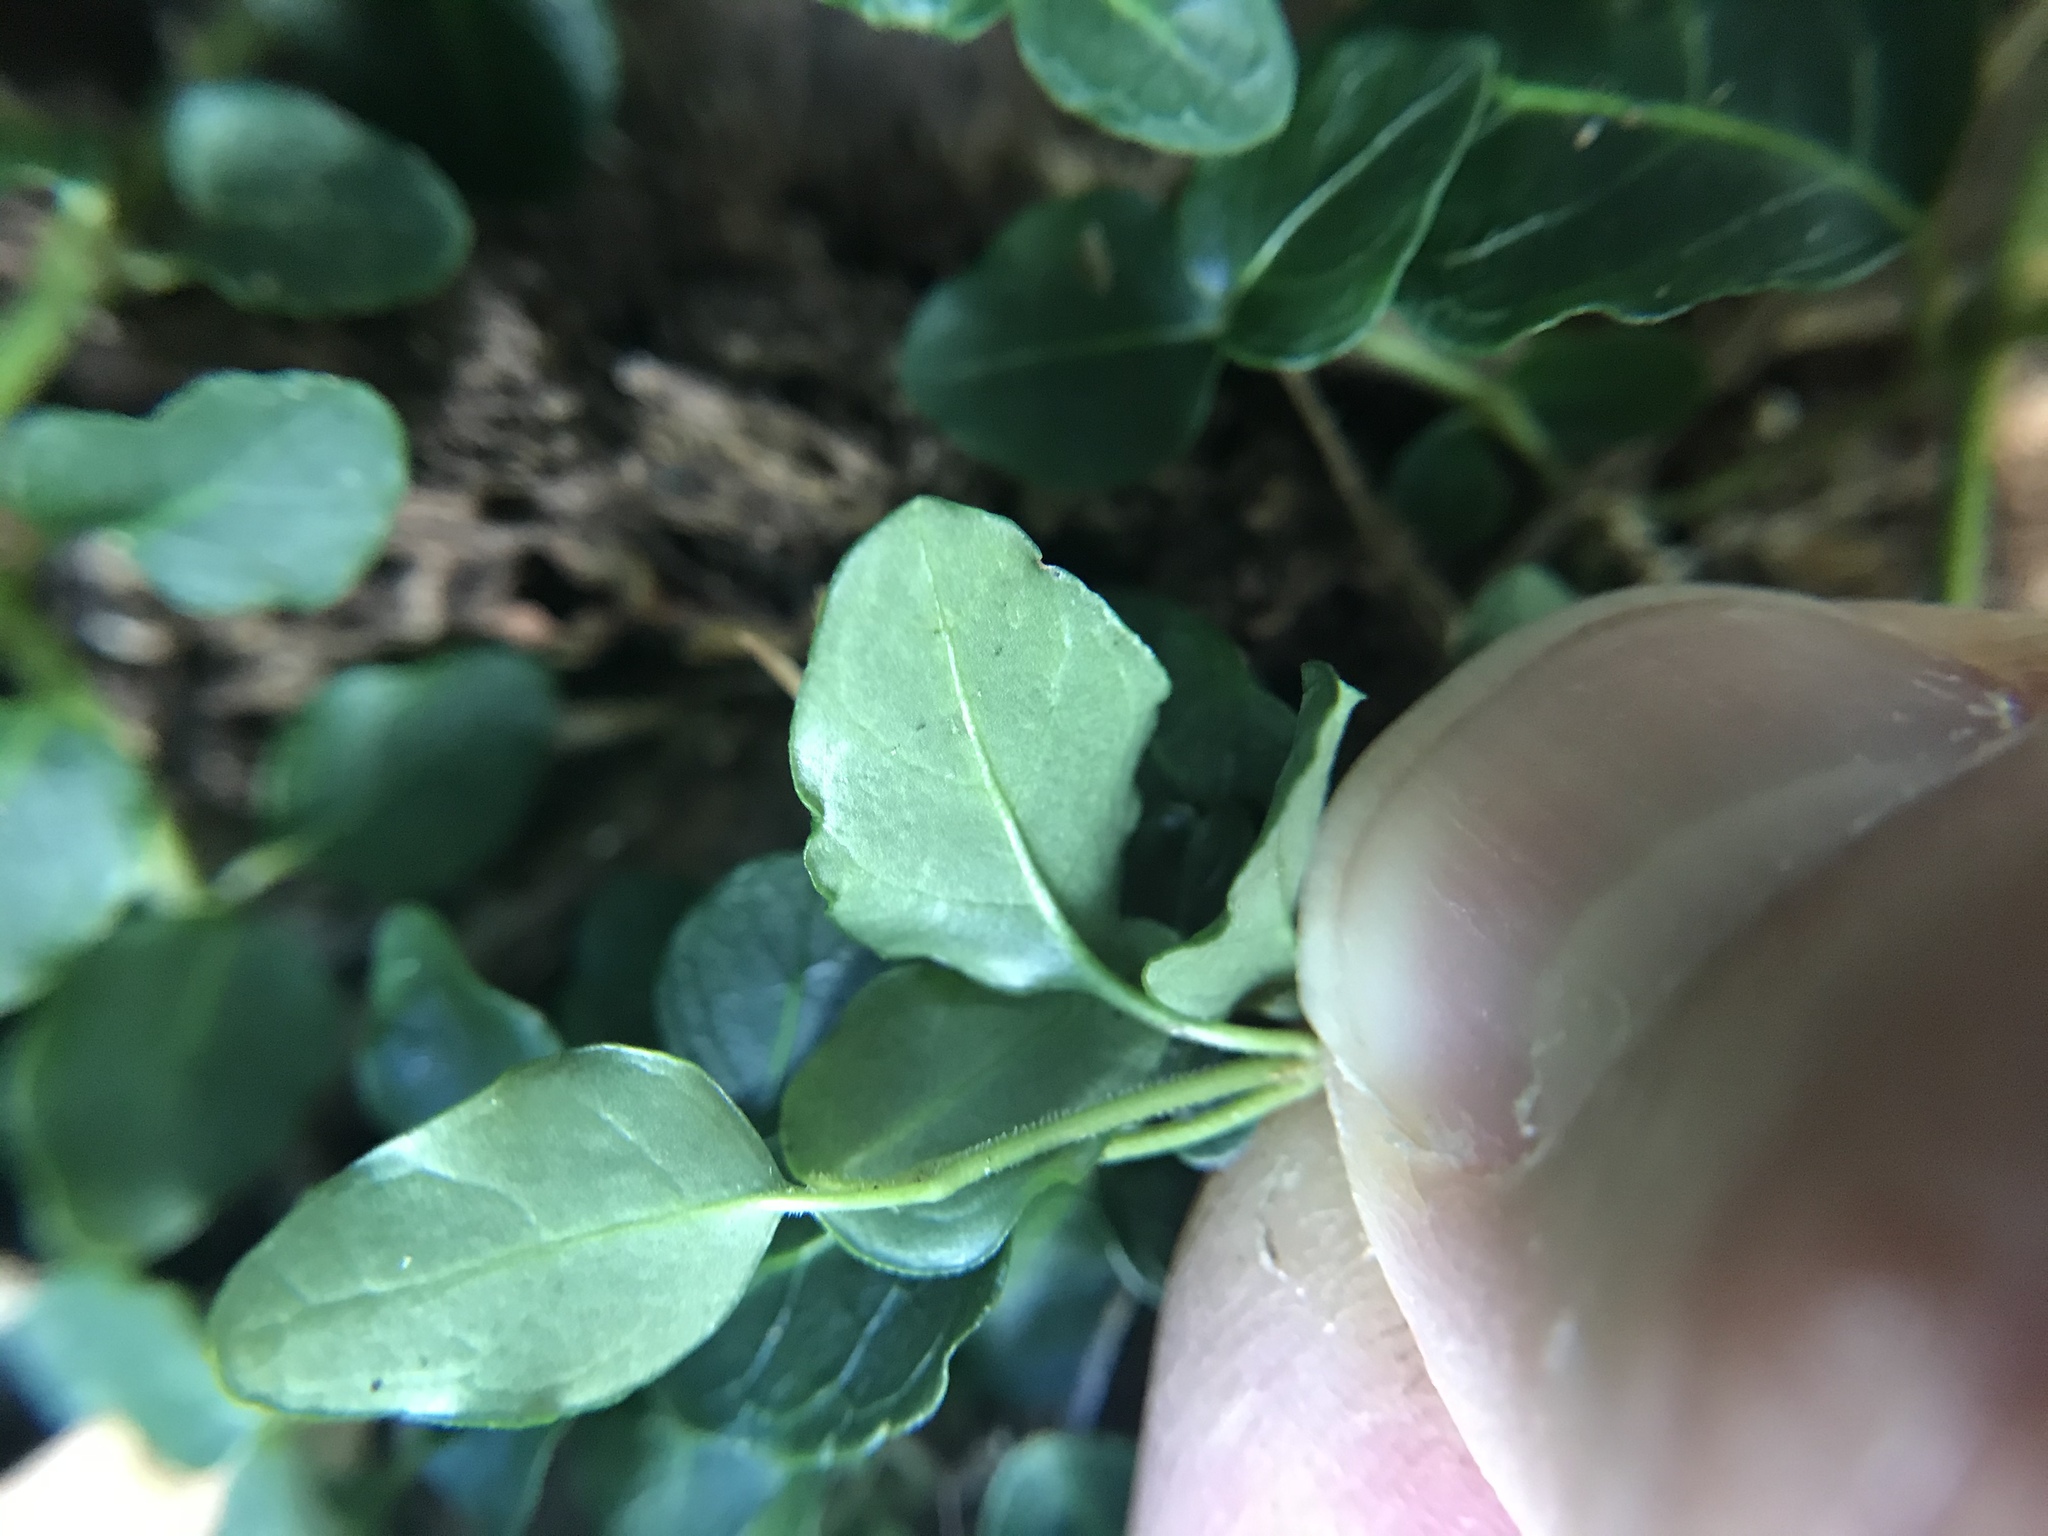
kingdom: Plantae
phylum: Tracheophyta
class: Magnoliopsida
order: Gentianales
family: Rubiaceae
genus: Mitchella
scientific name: Mitchella repens
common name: Partridge-berry
